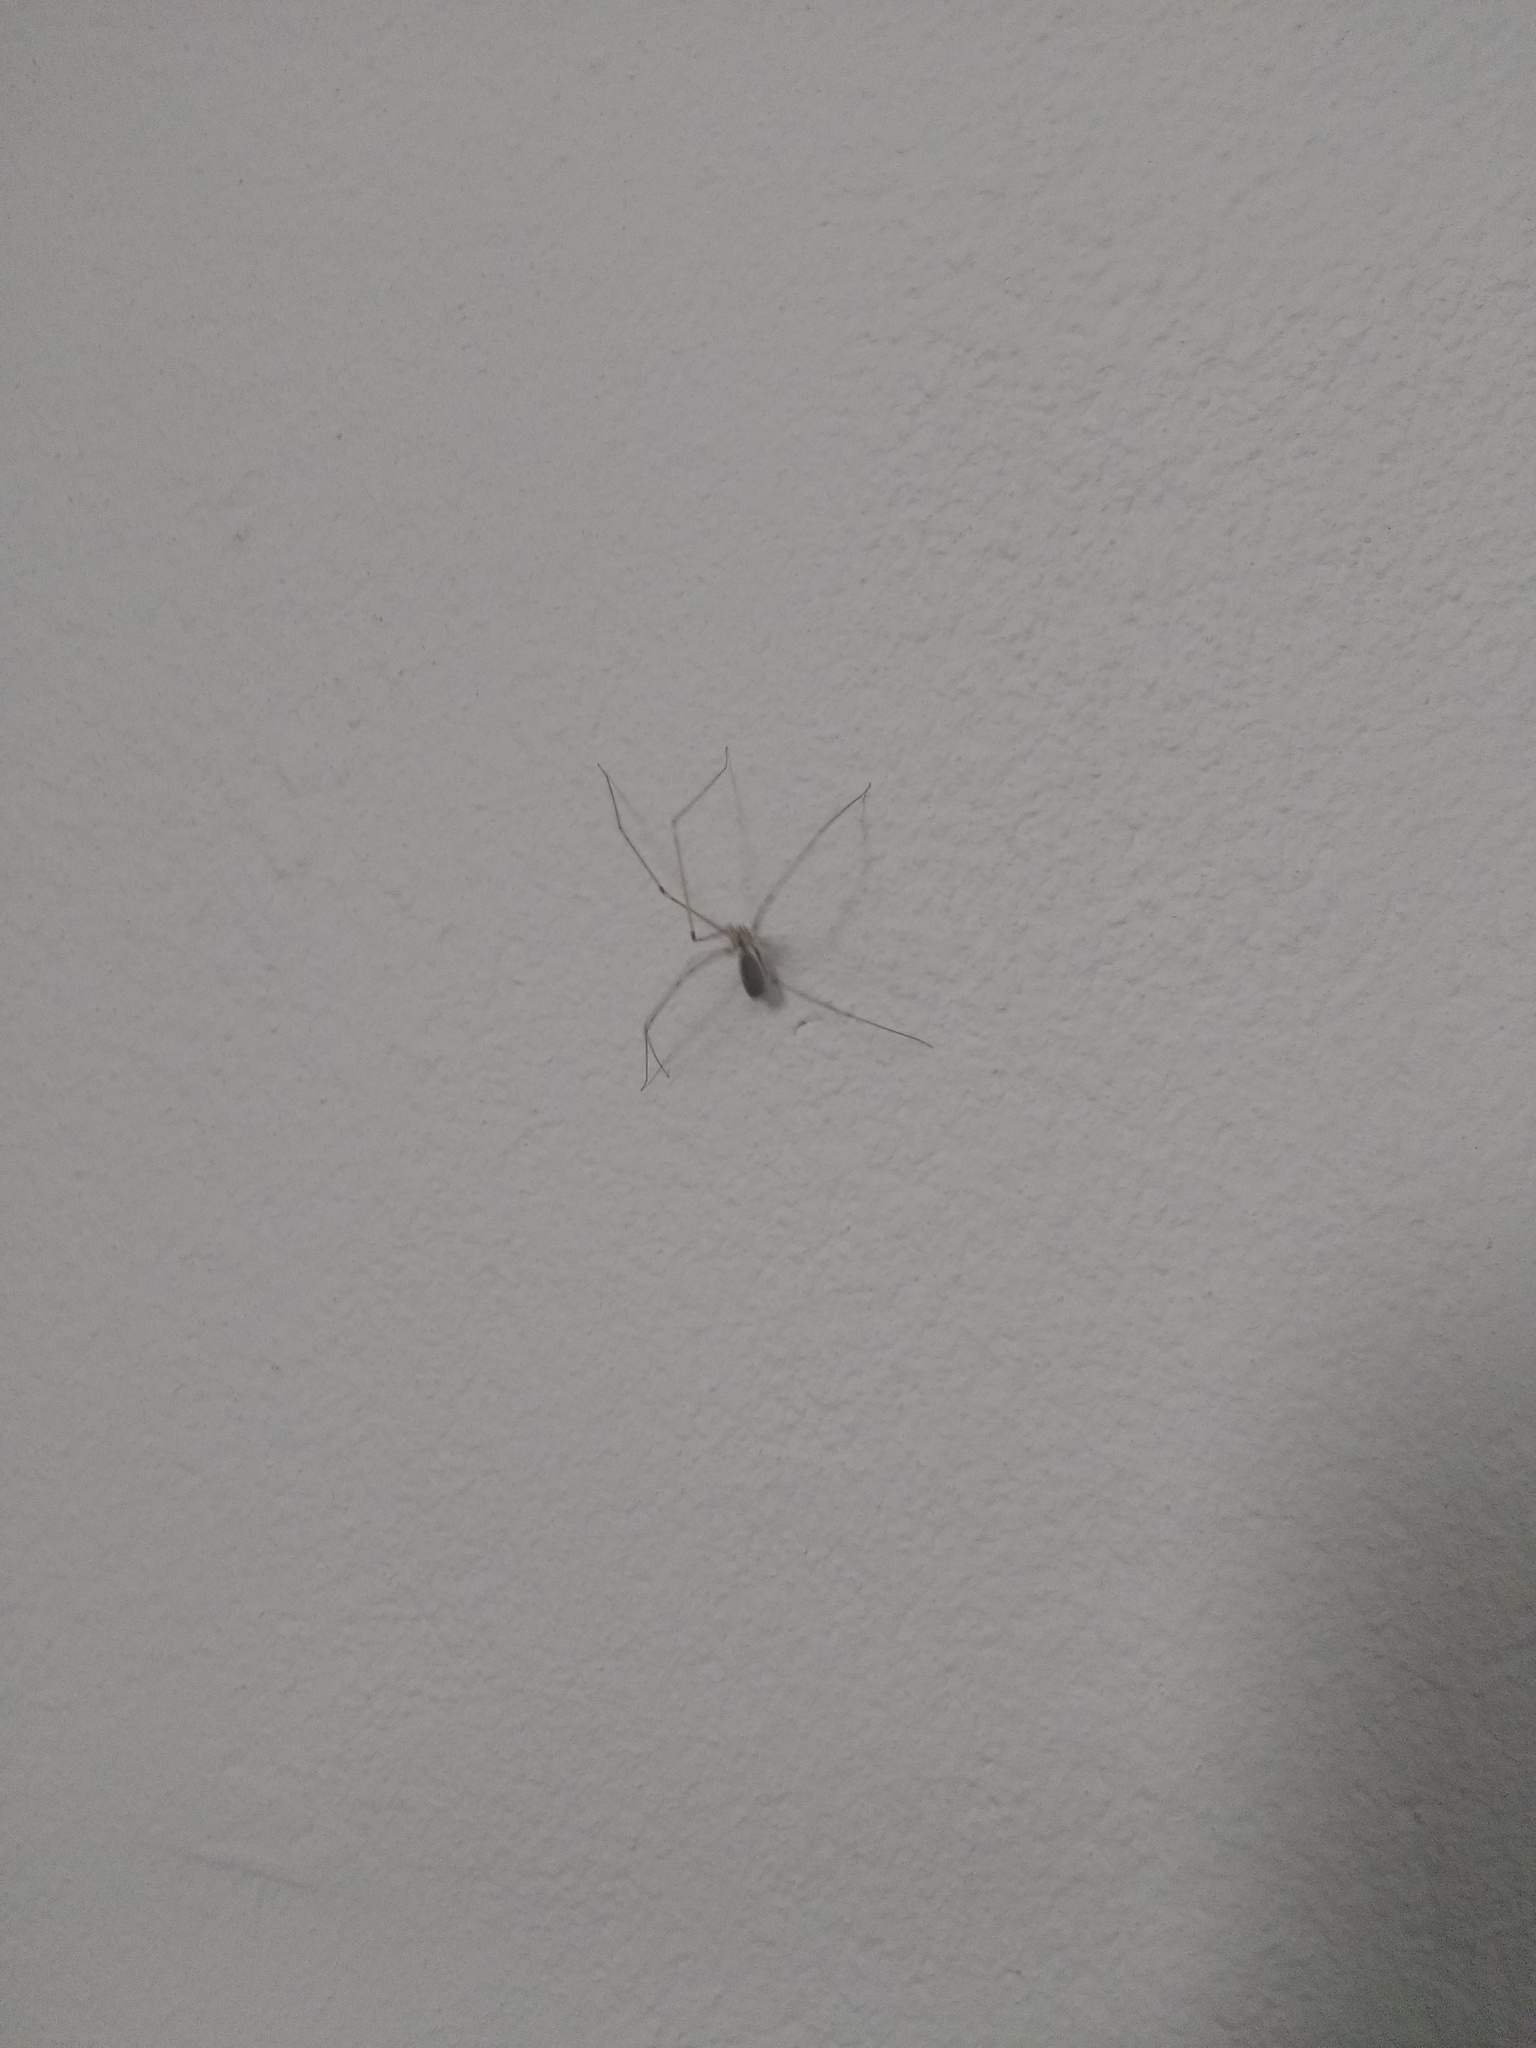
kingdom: Animalia
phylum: Arthropoda
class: Arachnida
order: Araneae
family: Pholcidae
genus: Pholcus
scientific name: Pholcus phalangioides
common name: Longbodied cellar spider
